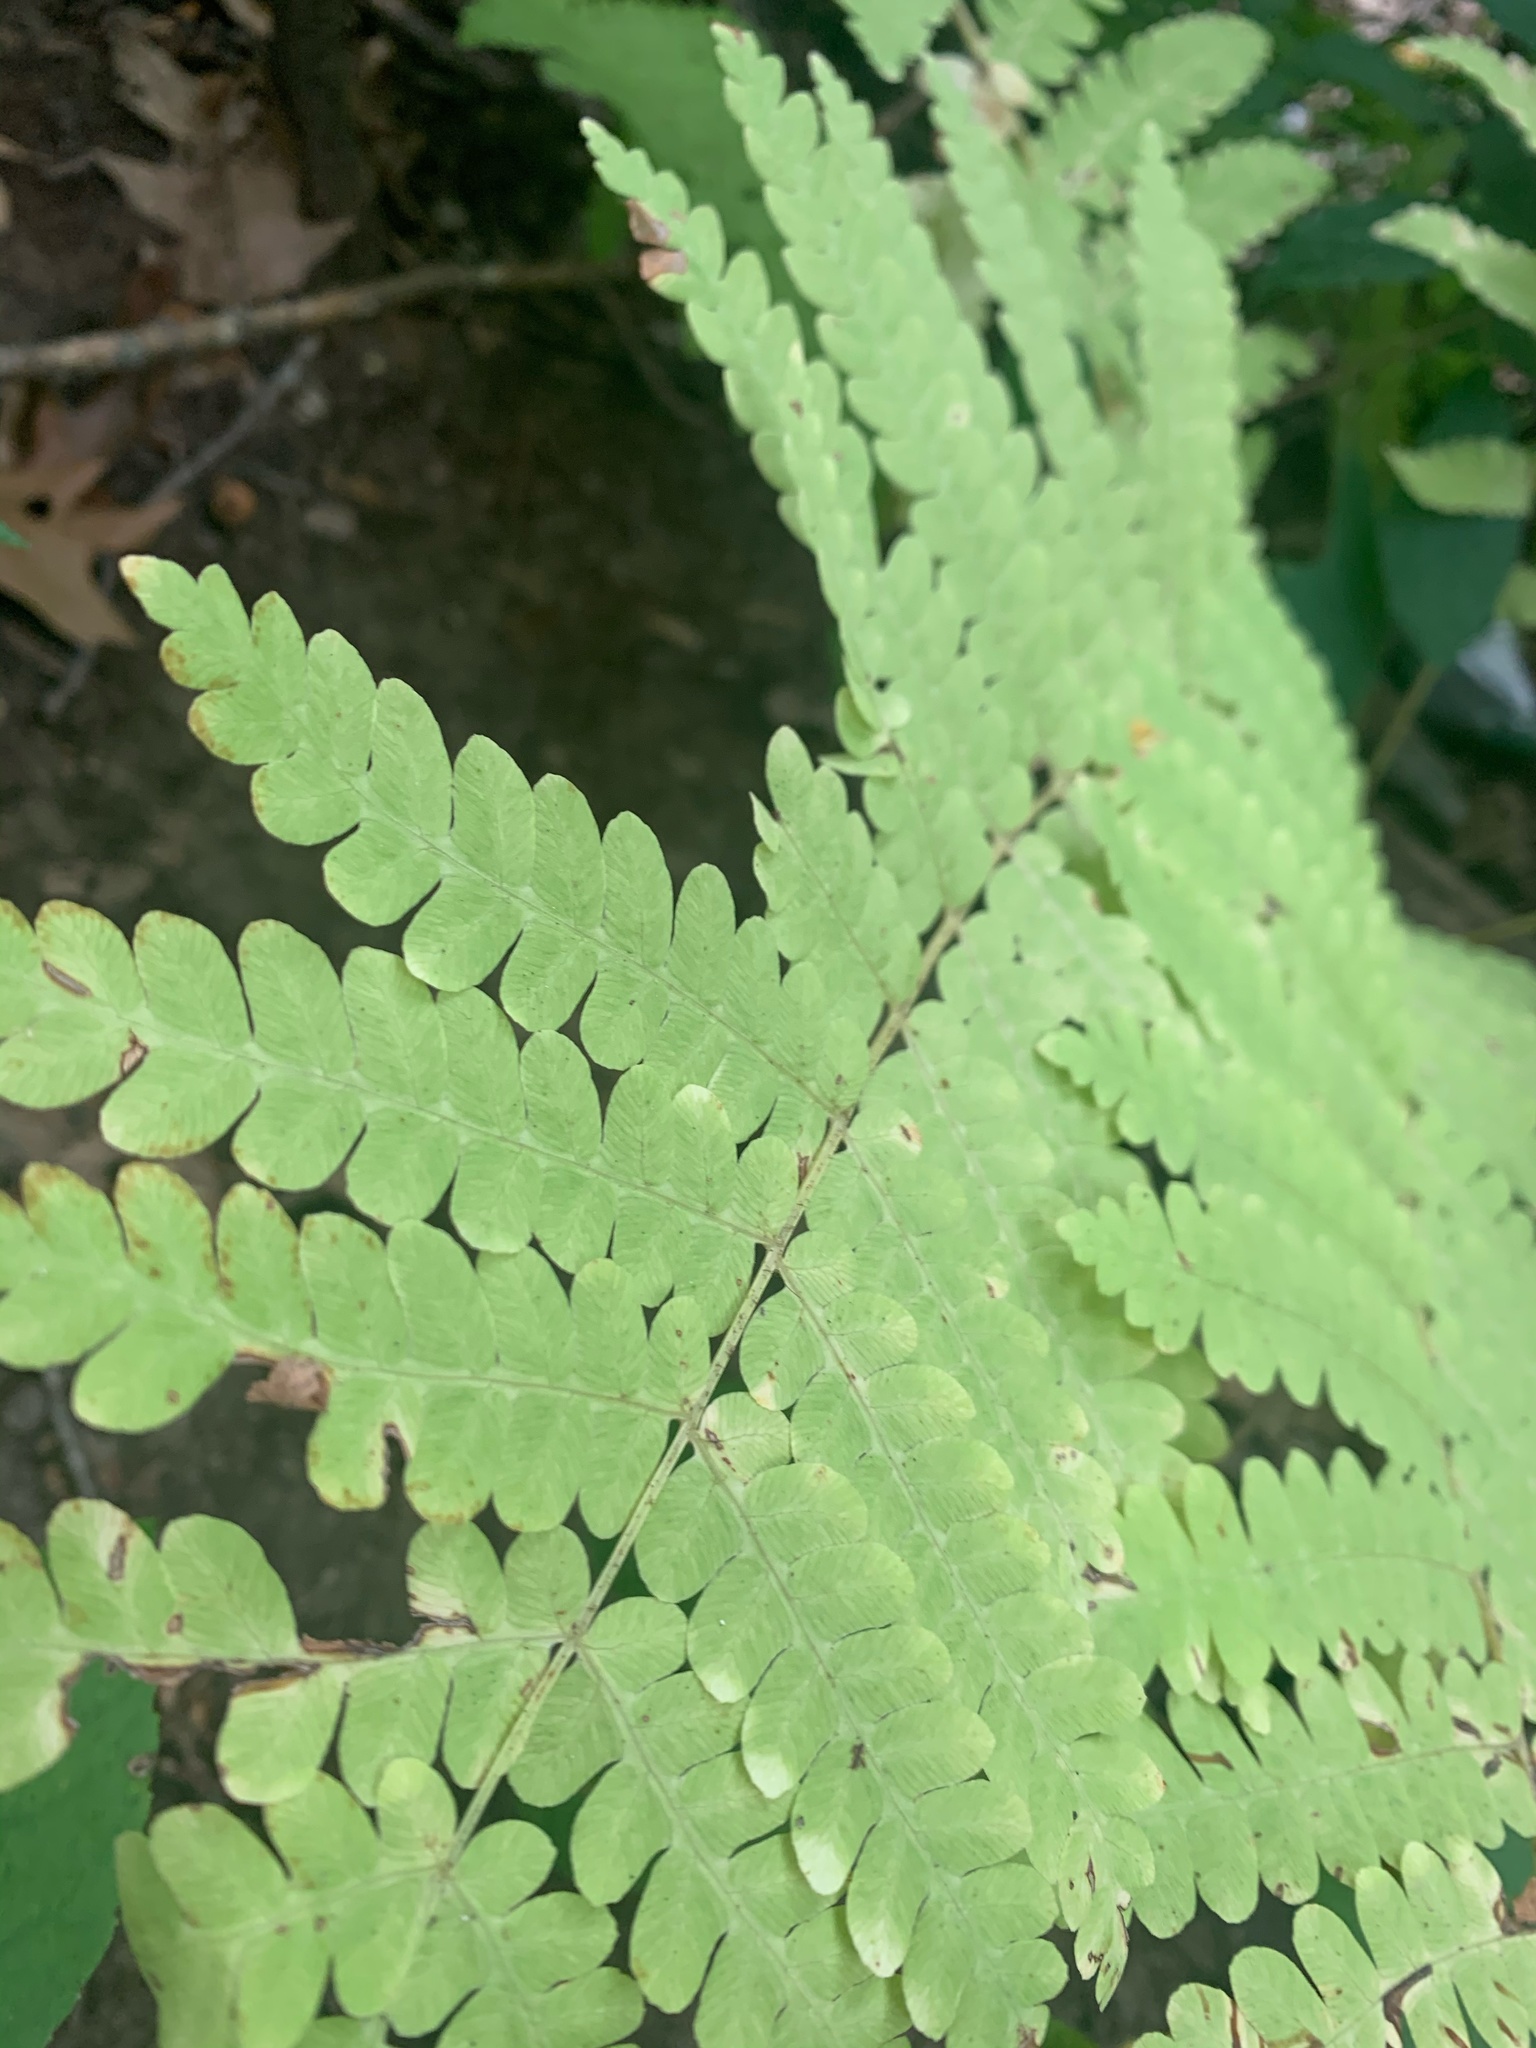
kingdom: Plantae
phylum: Tracheophyta
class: Polypodiopsida
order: Osmundales
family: Osmundaceae
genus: Osmundastrum
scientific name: Osmundastrum cinnamomeum
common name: Cinnamon fern
